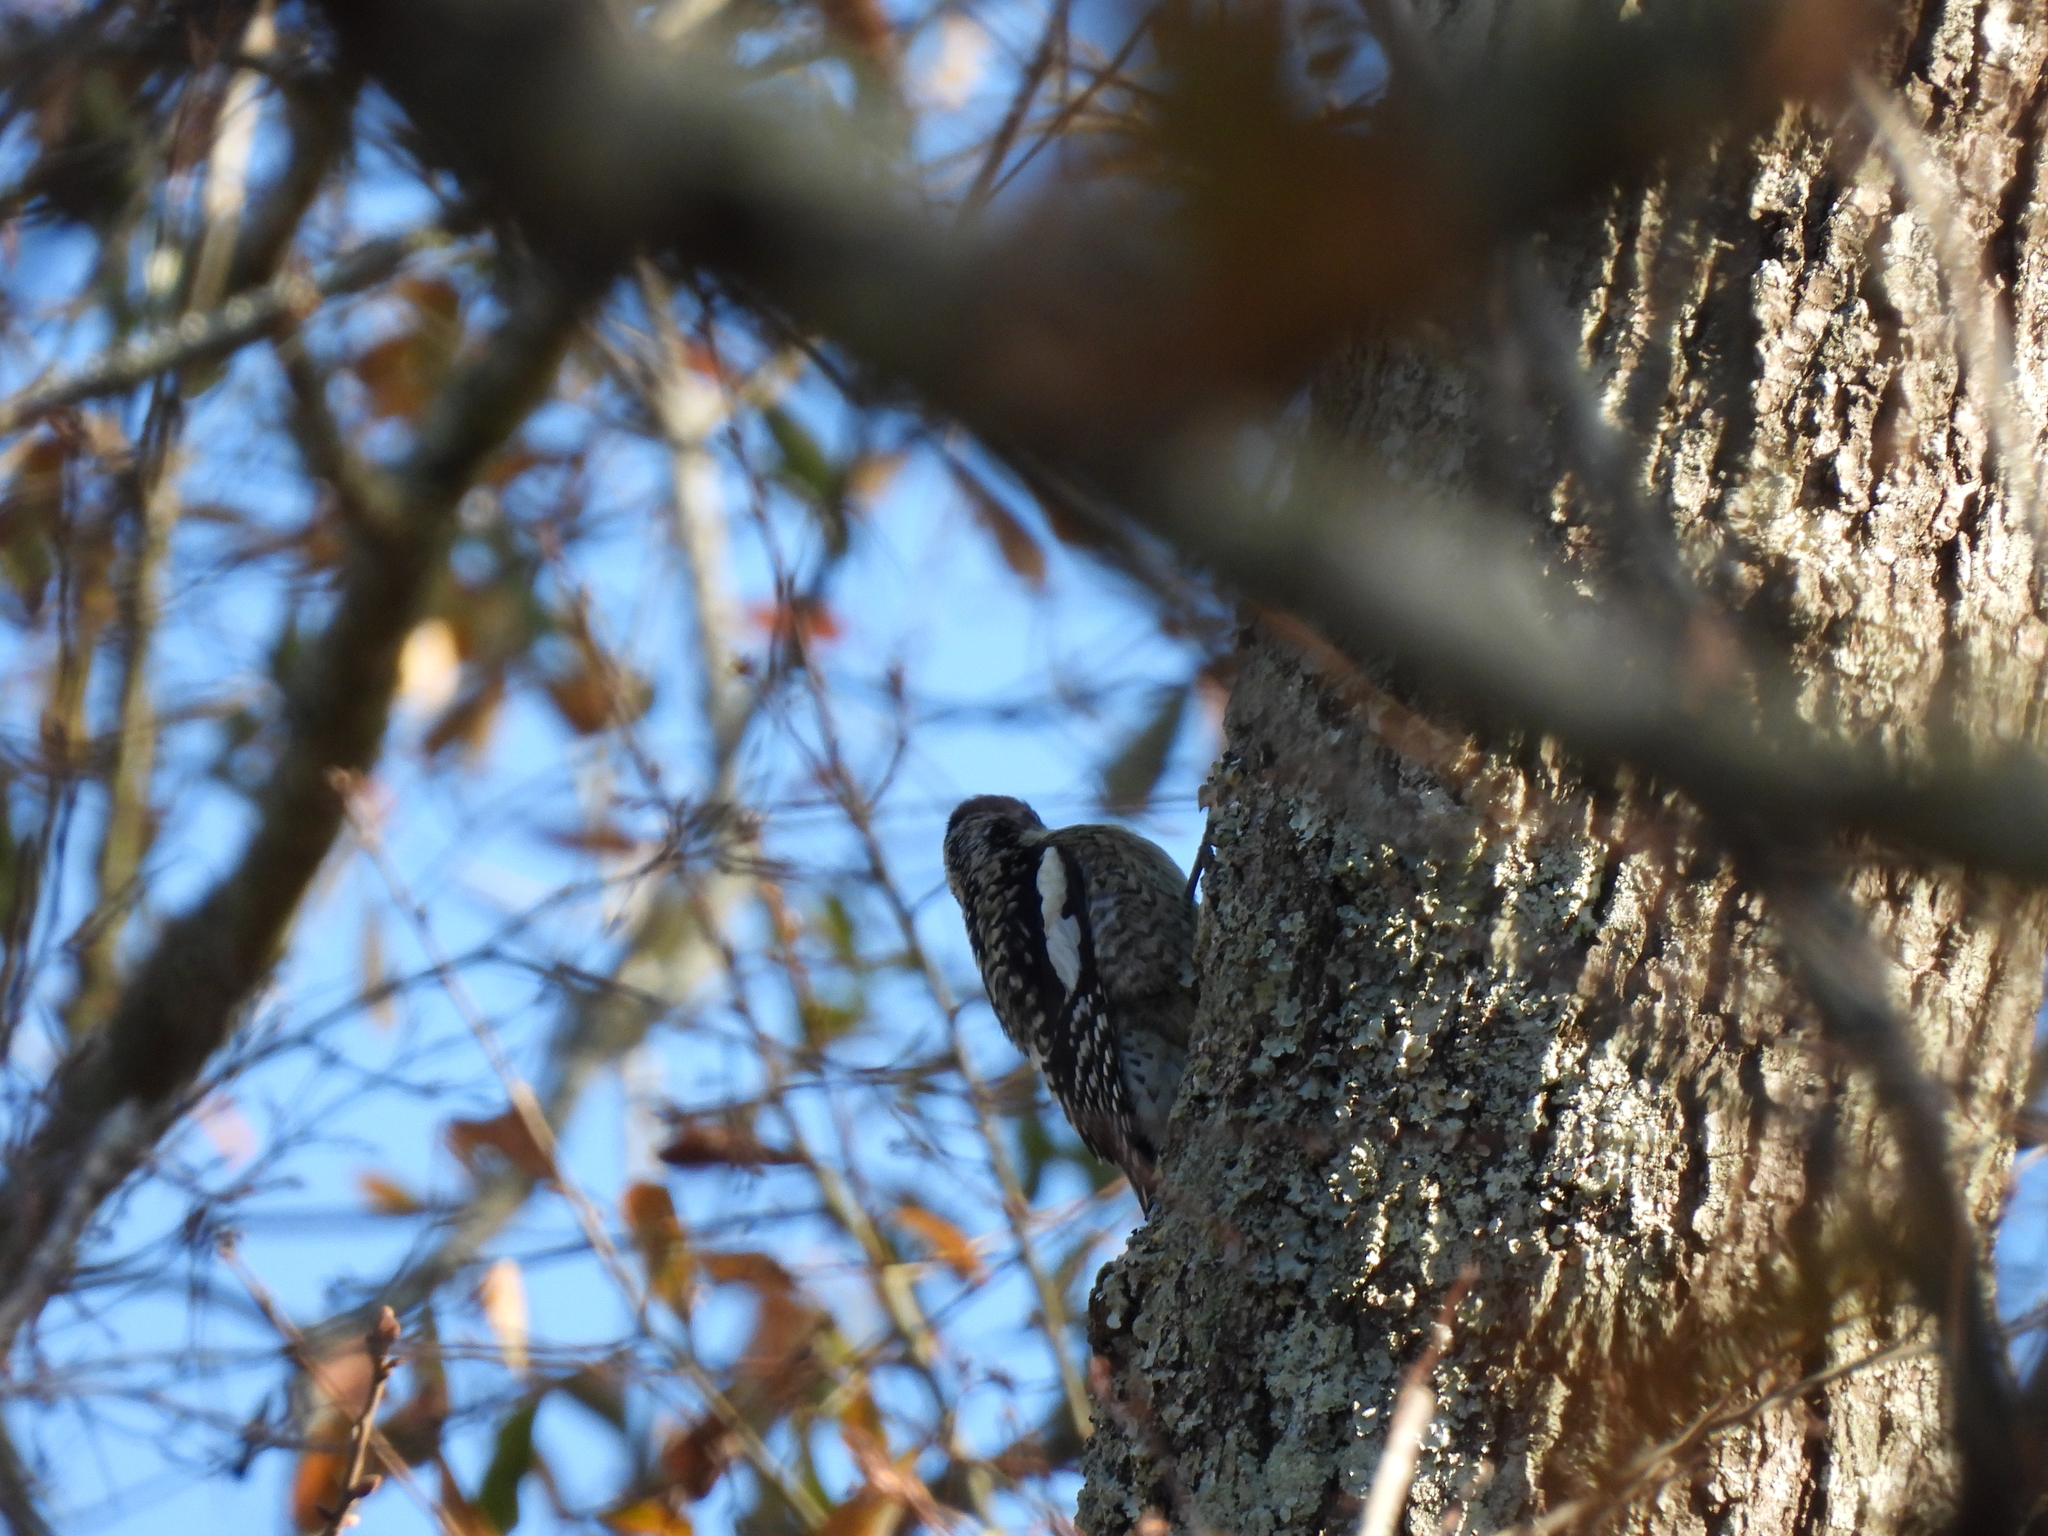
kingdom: Animalia
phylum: Chordata
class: Aves
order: Piciformes
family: Picidae
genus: Sphyrapicus
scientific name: Sphyrapicus varius
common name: Yellow-bellied sapsucker
